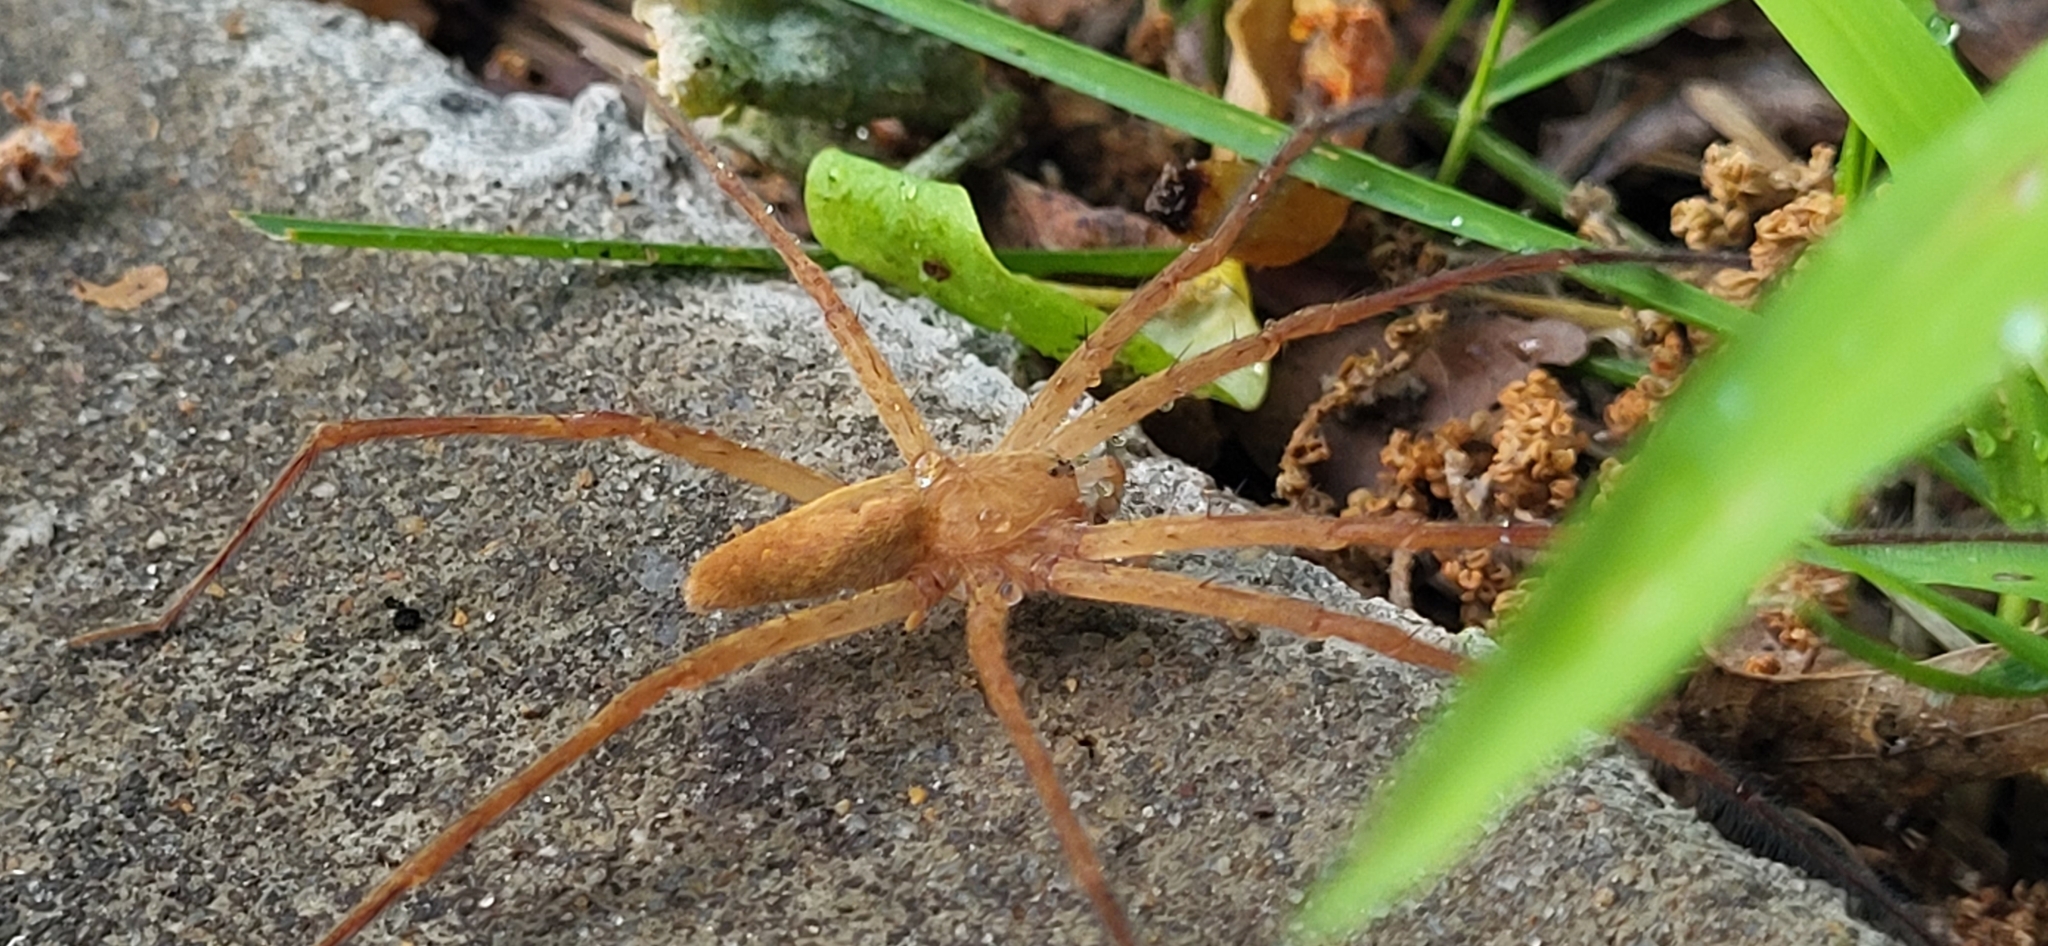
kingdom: Animalia
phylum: Arthropoda
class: Arachnida
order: Araneae
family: Pisauridae
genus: Pisaurina
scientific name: Pisaurina mira
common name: American nursery web spider
